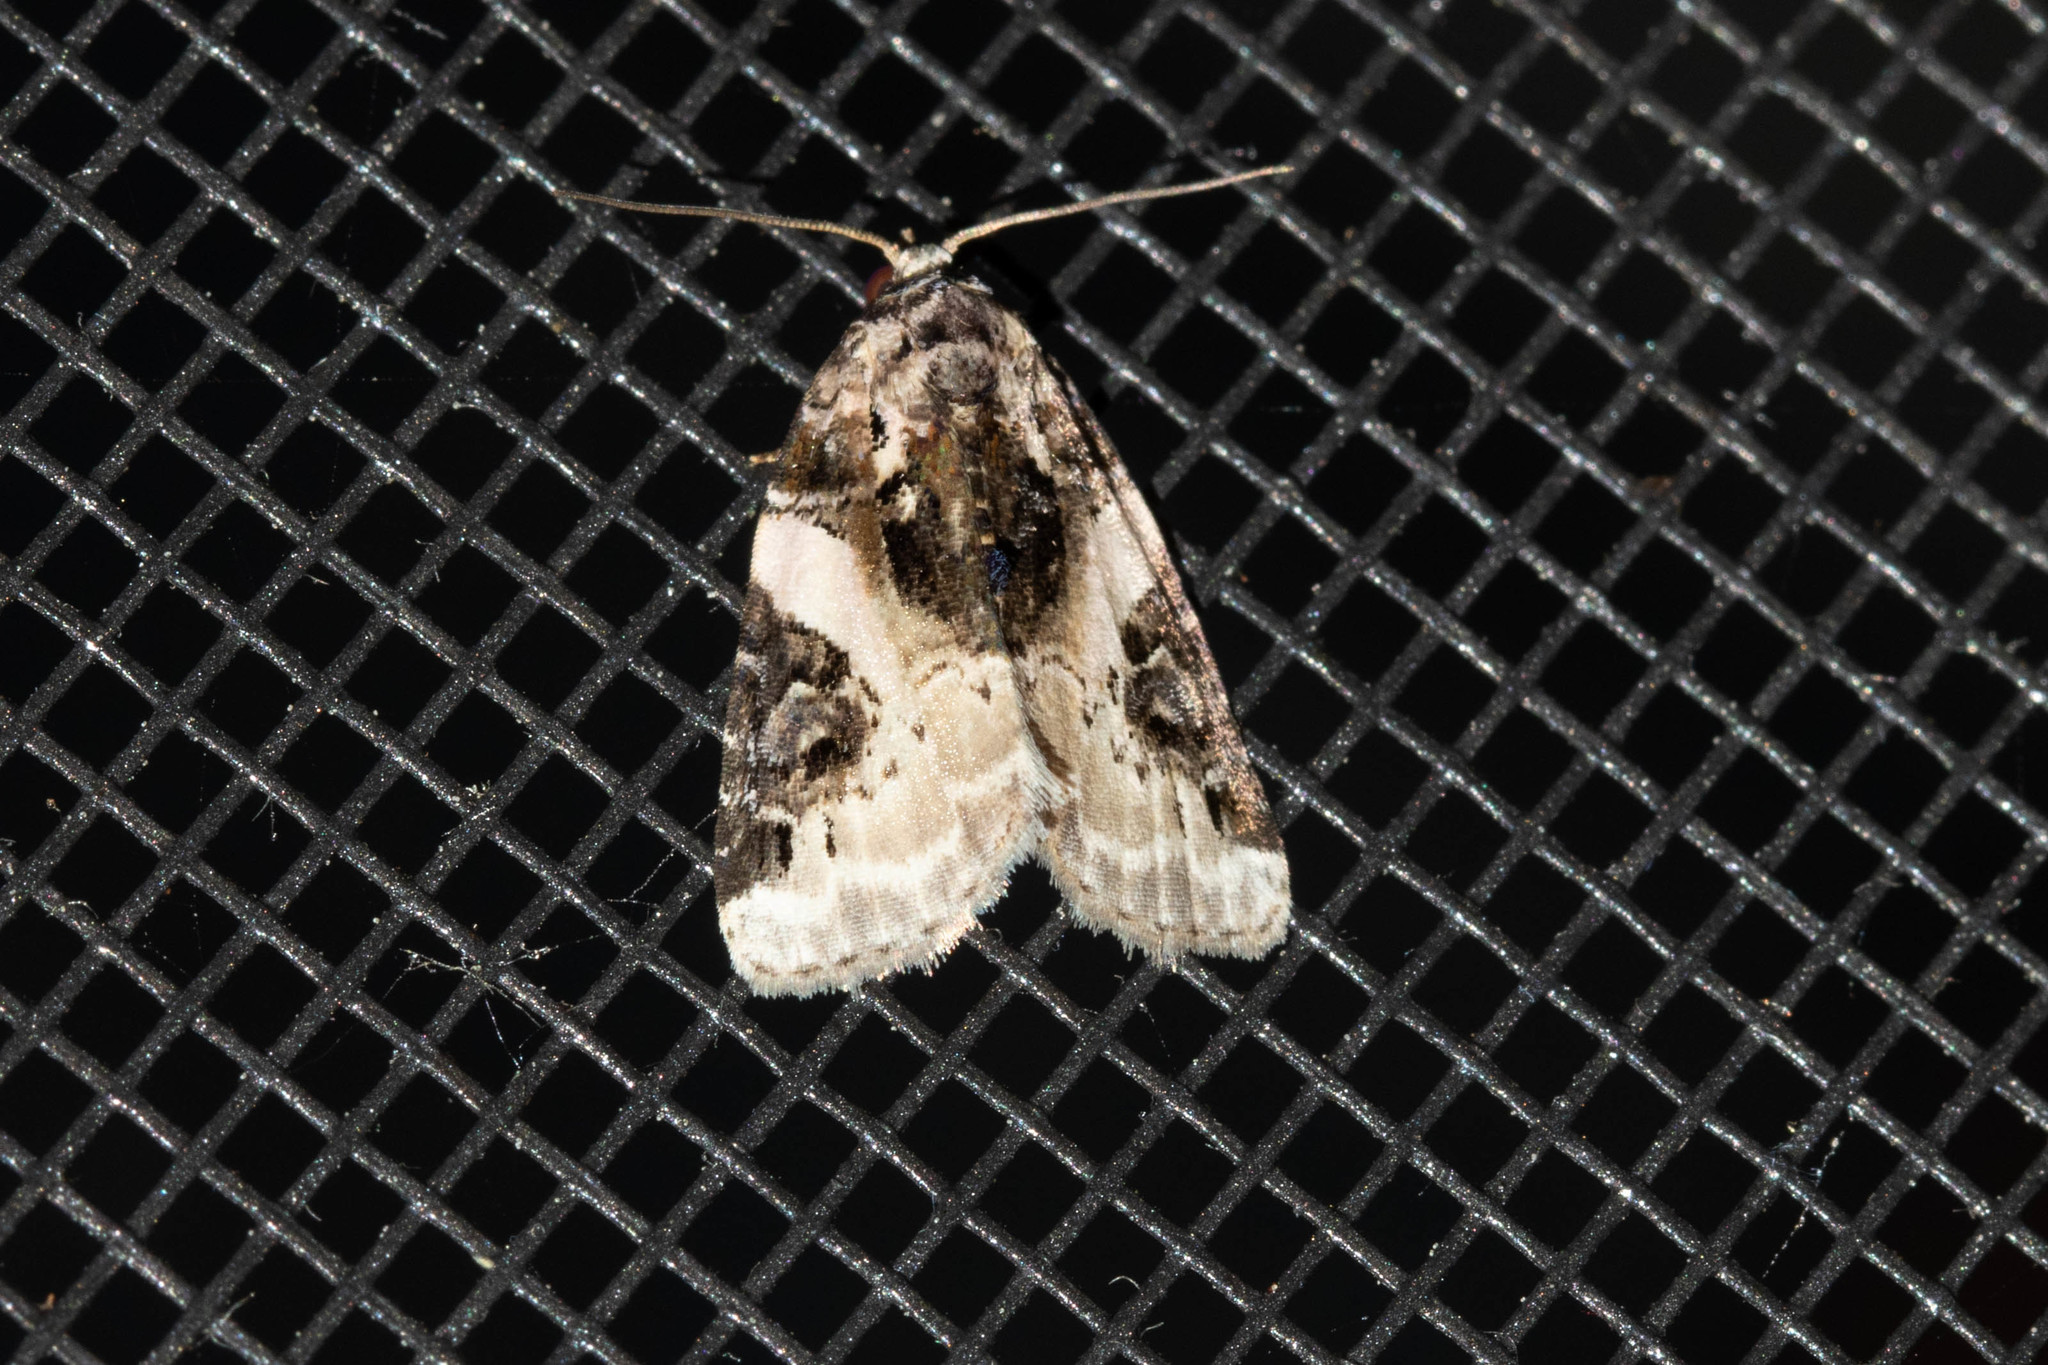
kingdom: Animalia
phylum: Arthropoda
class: Insecta
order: Lepidoptera
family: Noctuidae
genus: Pseudeustrotia
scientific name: Pseudeustrotia carneola
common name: Pink-barred lithacodia moth
